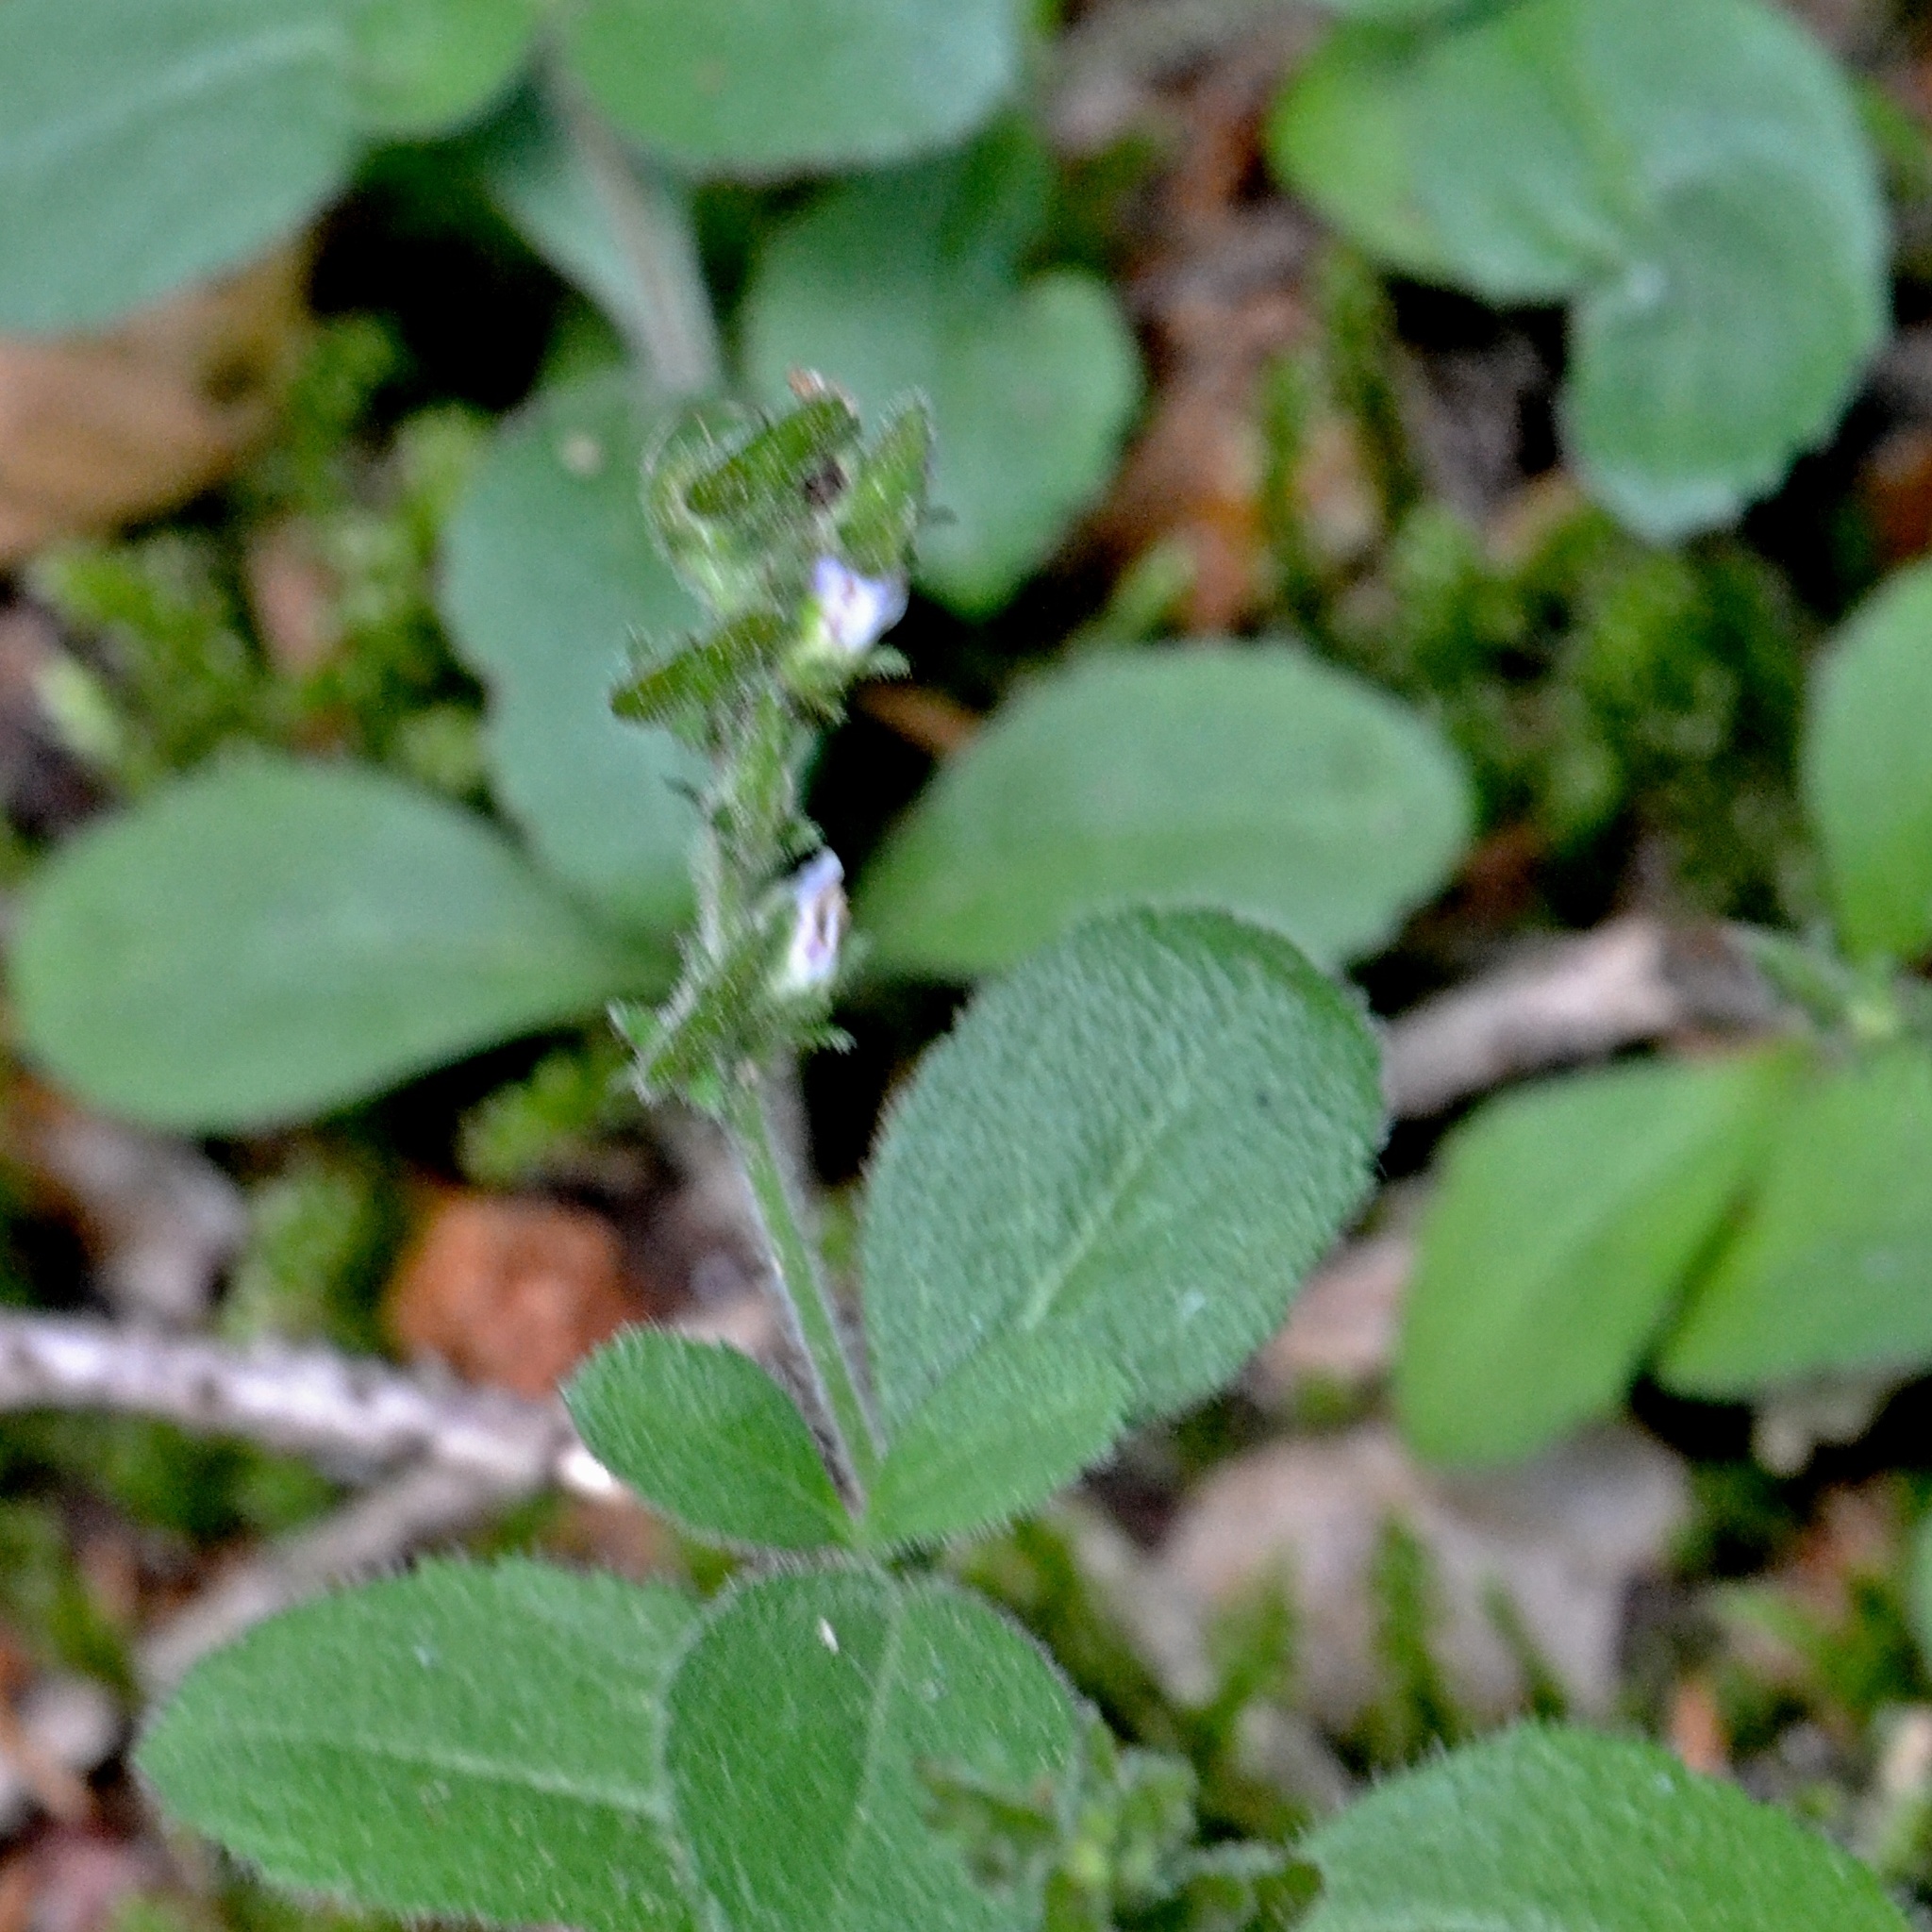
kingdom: Plantae
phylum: Tracheophyta
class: Magnoliopsida
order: Lamiales
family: Plantaginaceae
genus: Veronica
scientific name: Veronica officinalis
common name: Common speedwell
